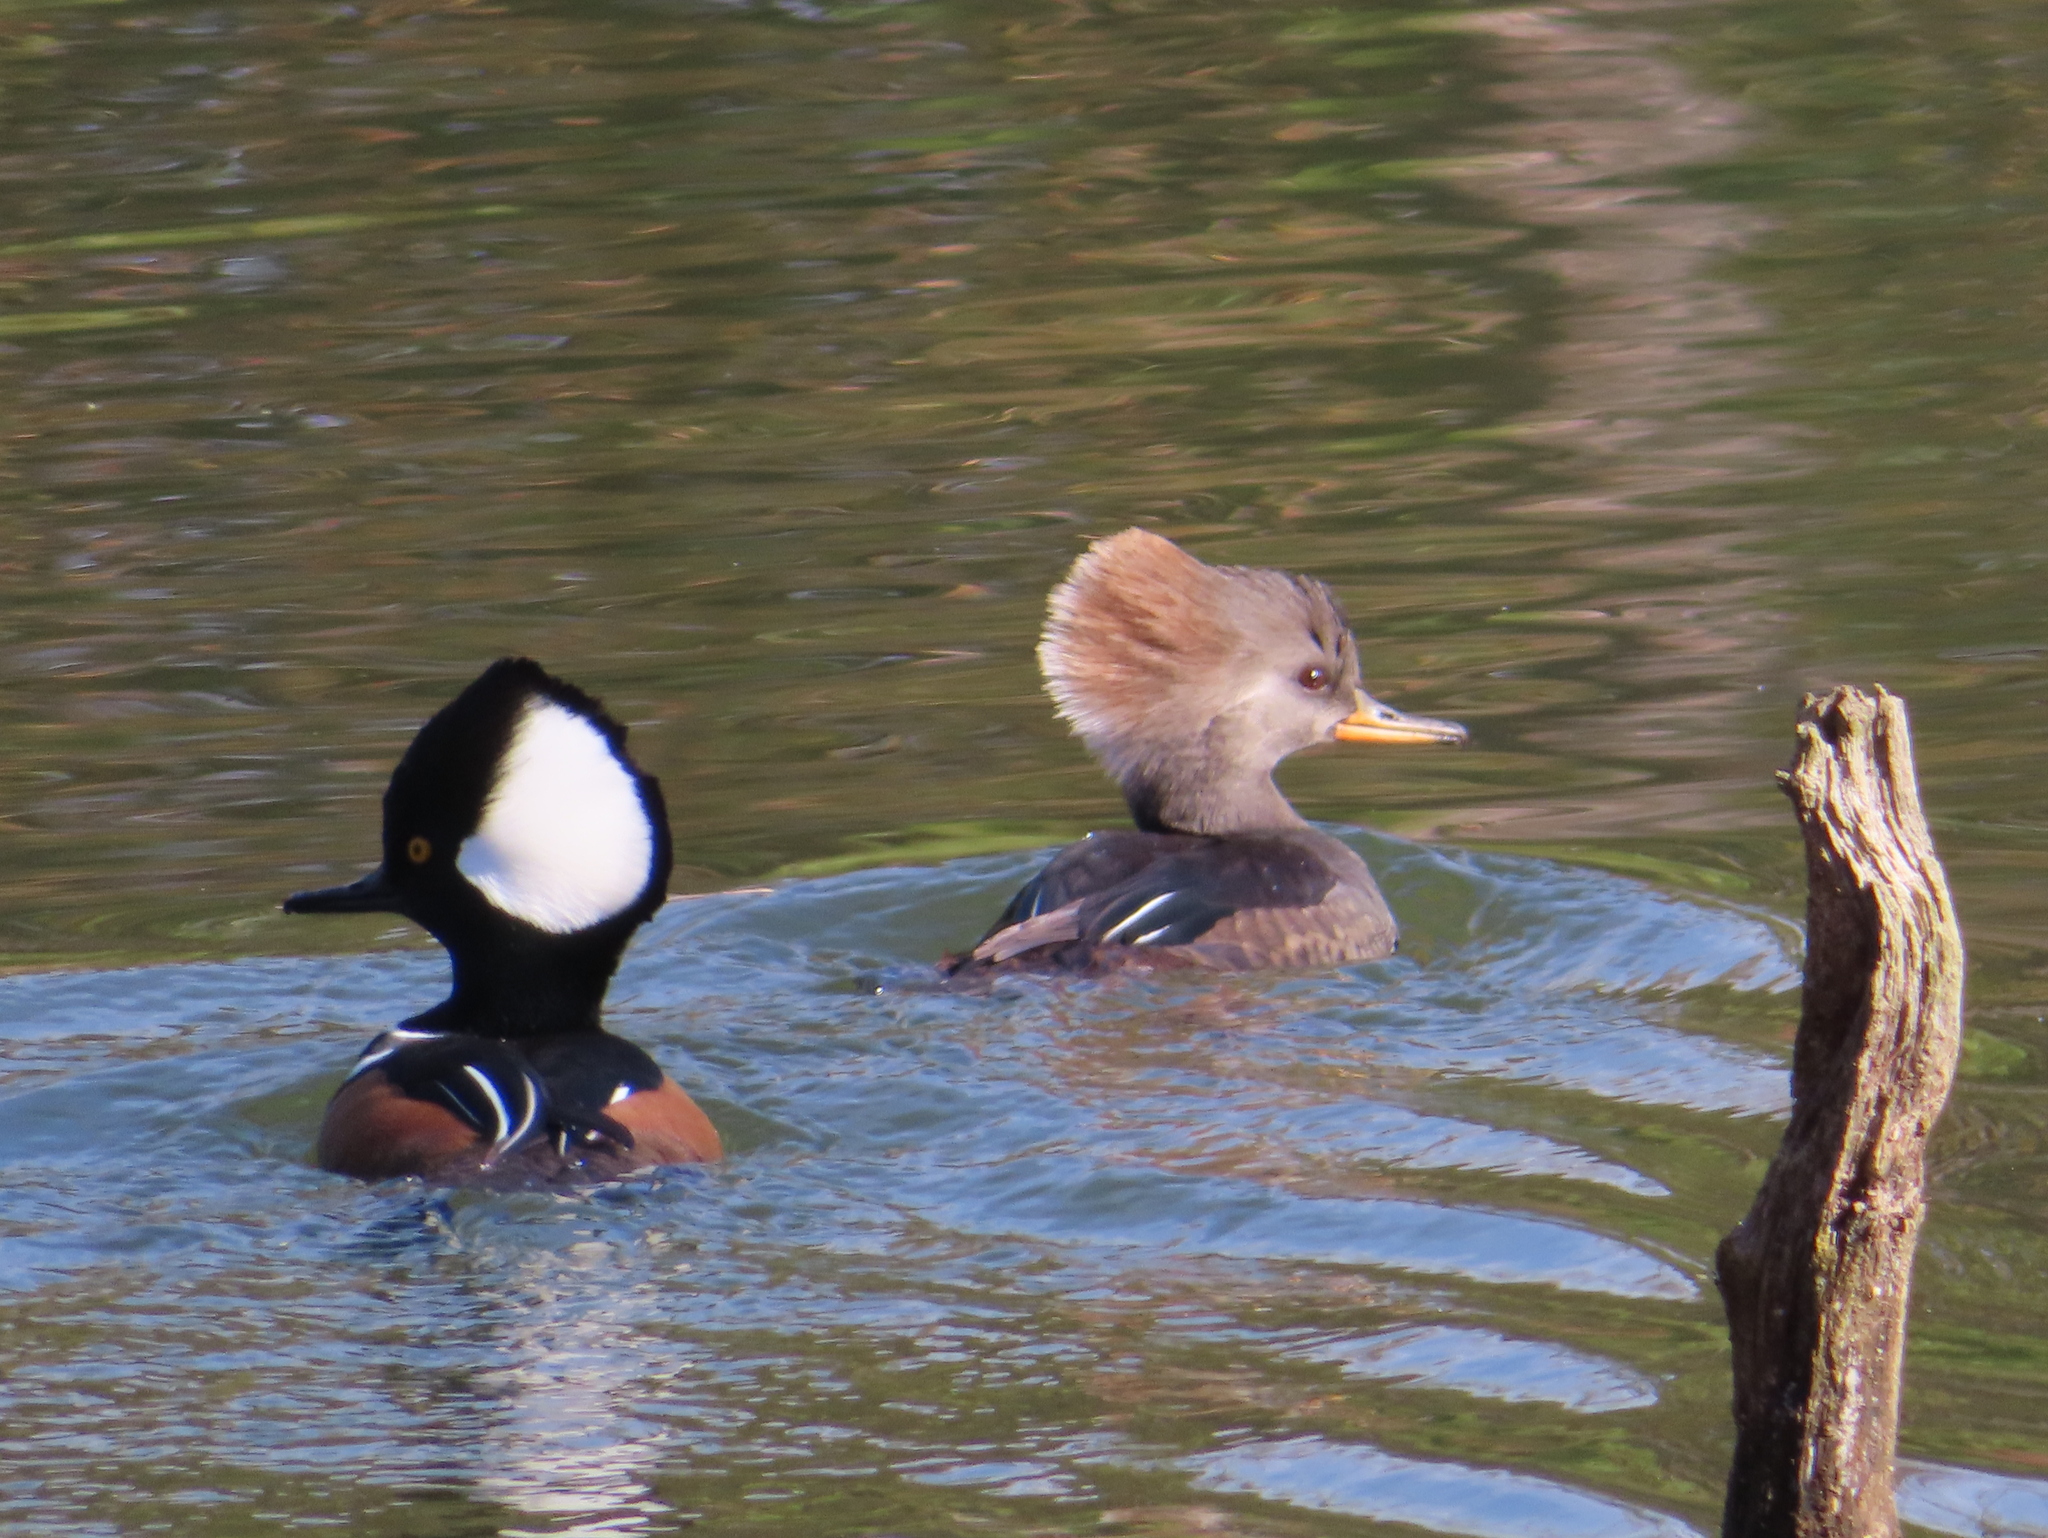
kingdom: Animalia
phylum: Chordata
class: Aves
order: Anseriformes
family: Anatidae
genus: Lophodytes
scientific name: Lophodytes cucullatus
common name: Hooded merganser
